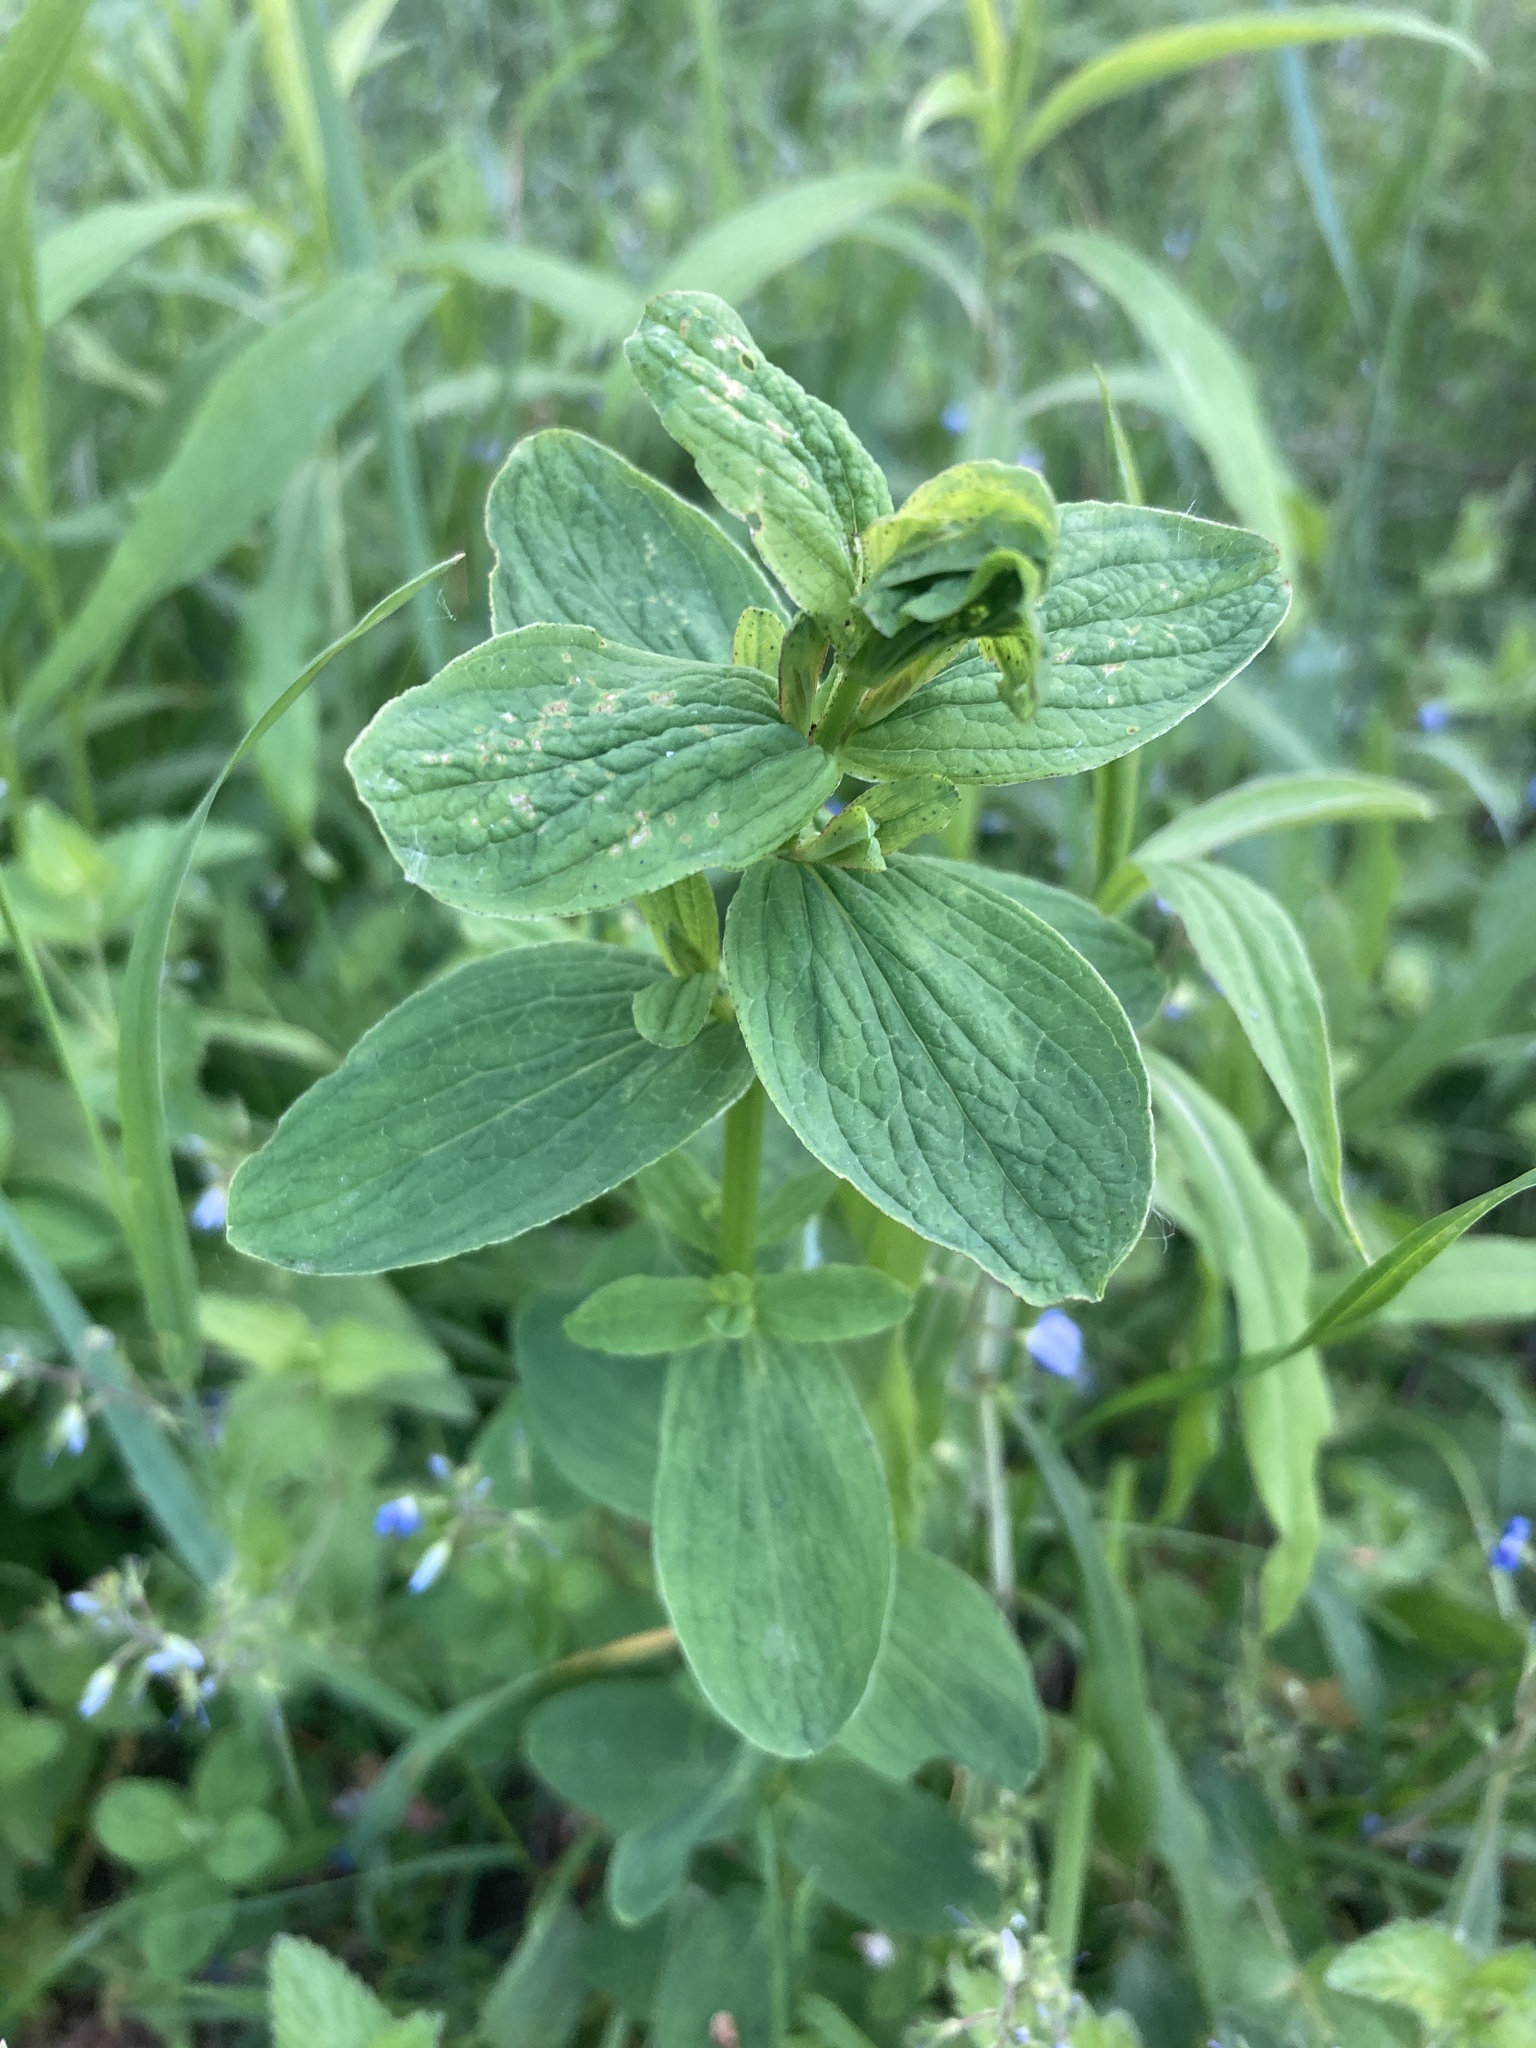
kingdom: Plantae
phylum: Tracheophyta
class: Magnoliopsida
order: Malpighiales
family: Hypericaceae
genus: Hypericum
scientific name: Hypericum maculatum
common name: Imperforate st. john's-wort
